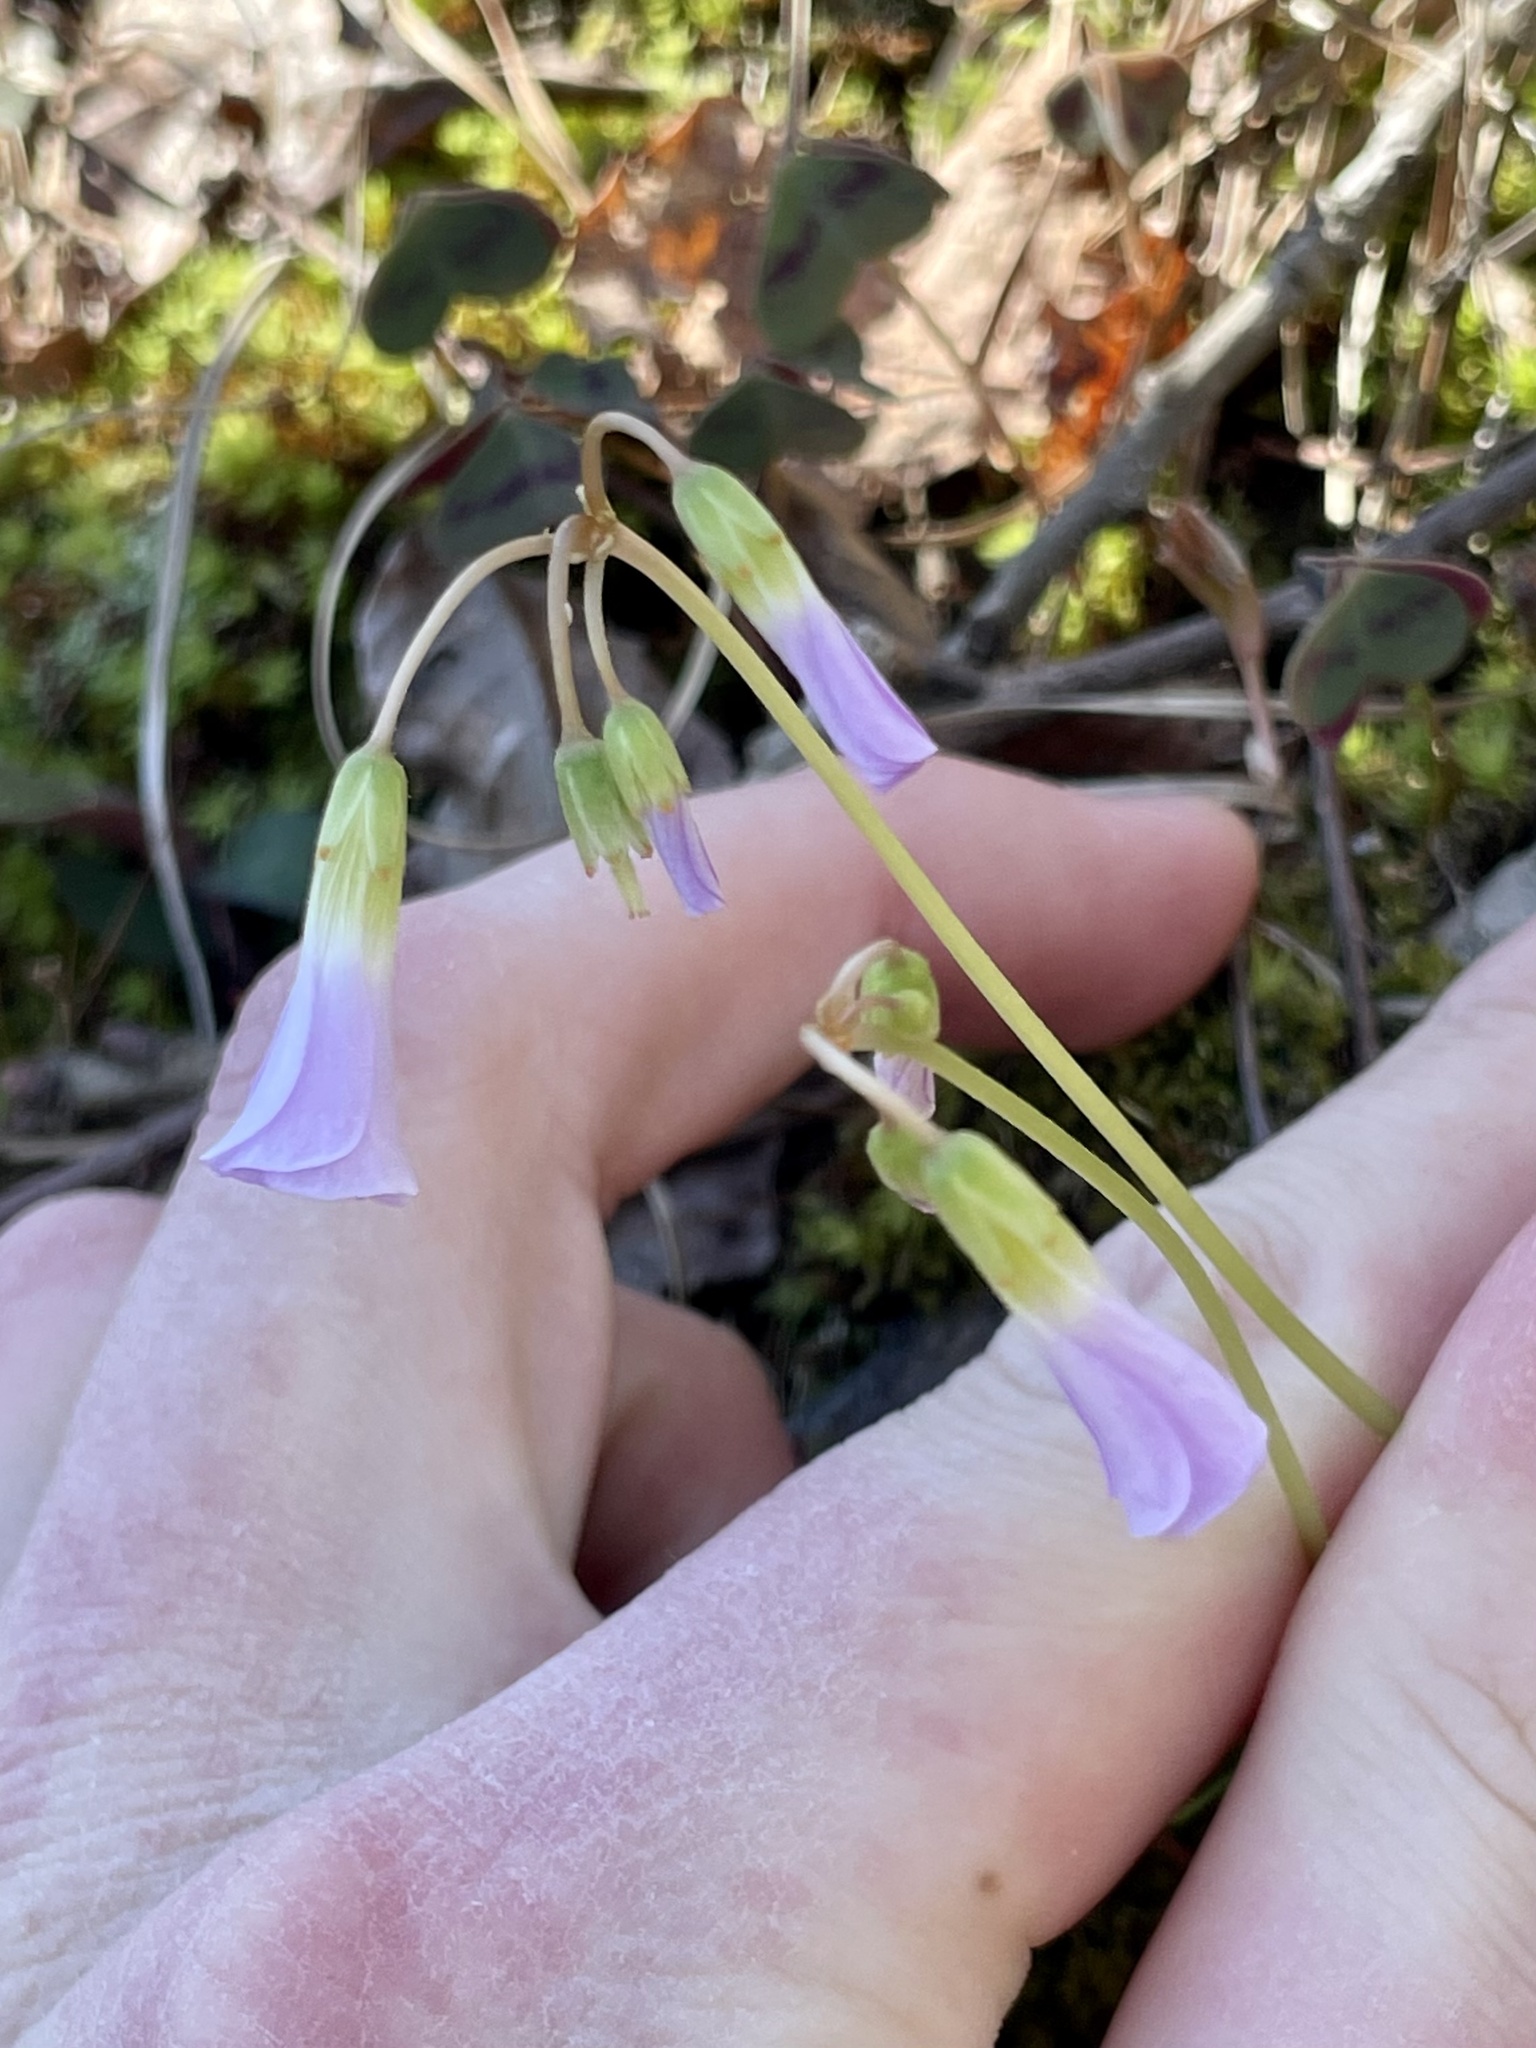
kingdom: Plantae
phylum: Tracheophyta
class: Magnoliopsida
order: Oxalidales
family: Oxalidaceae
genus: Oxalis
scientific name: Oxalis violacea
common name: Violet wood-sorrel
